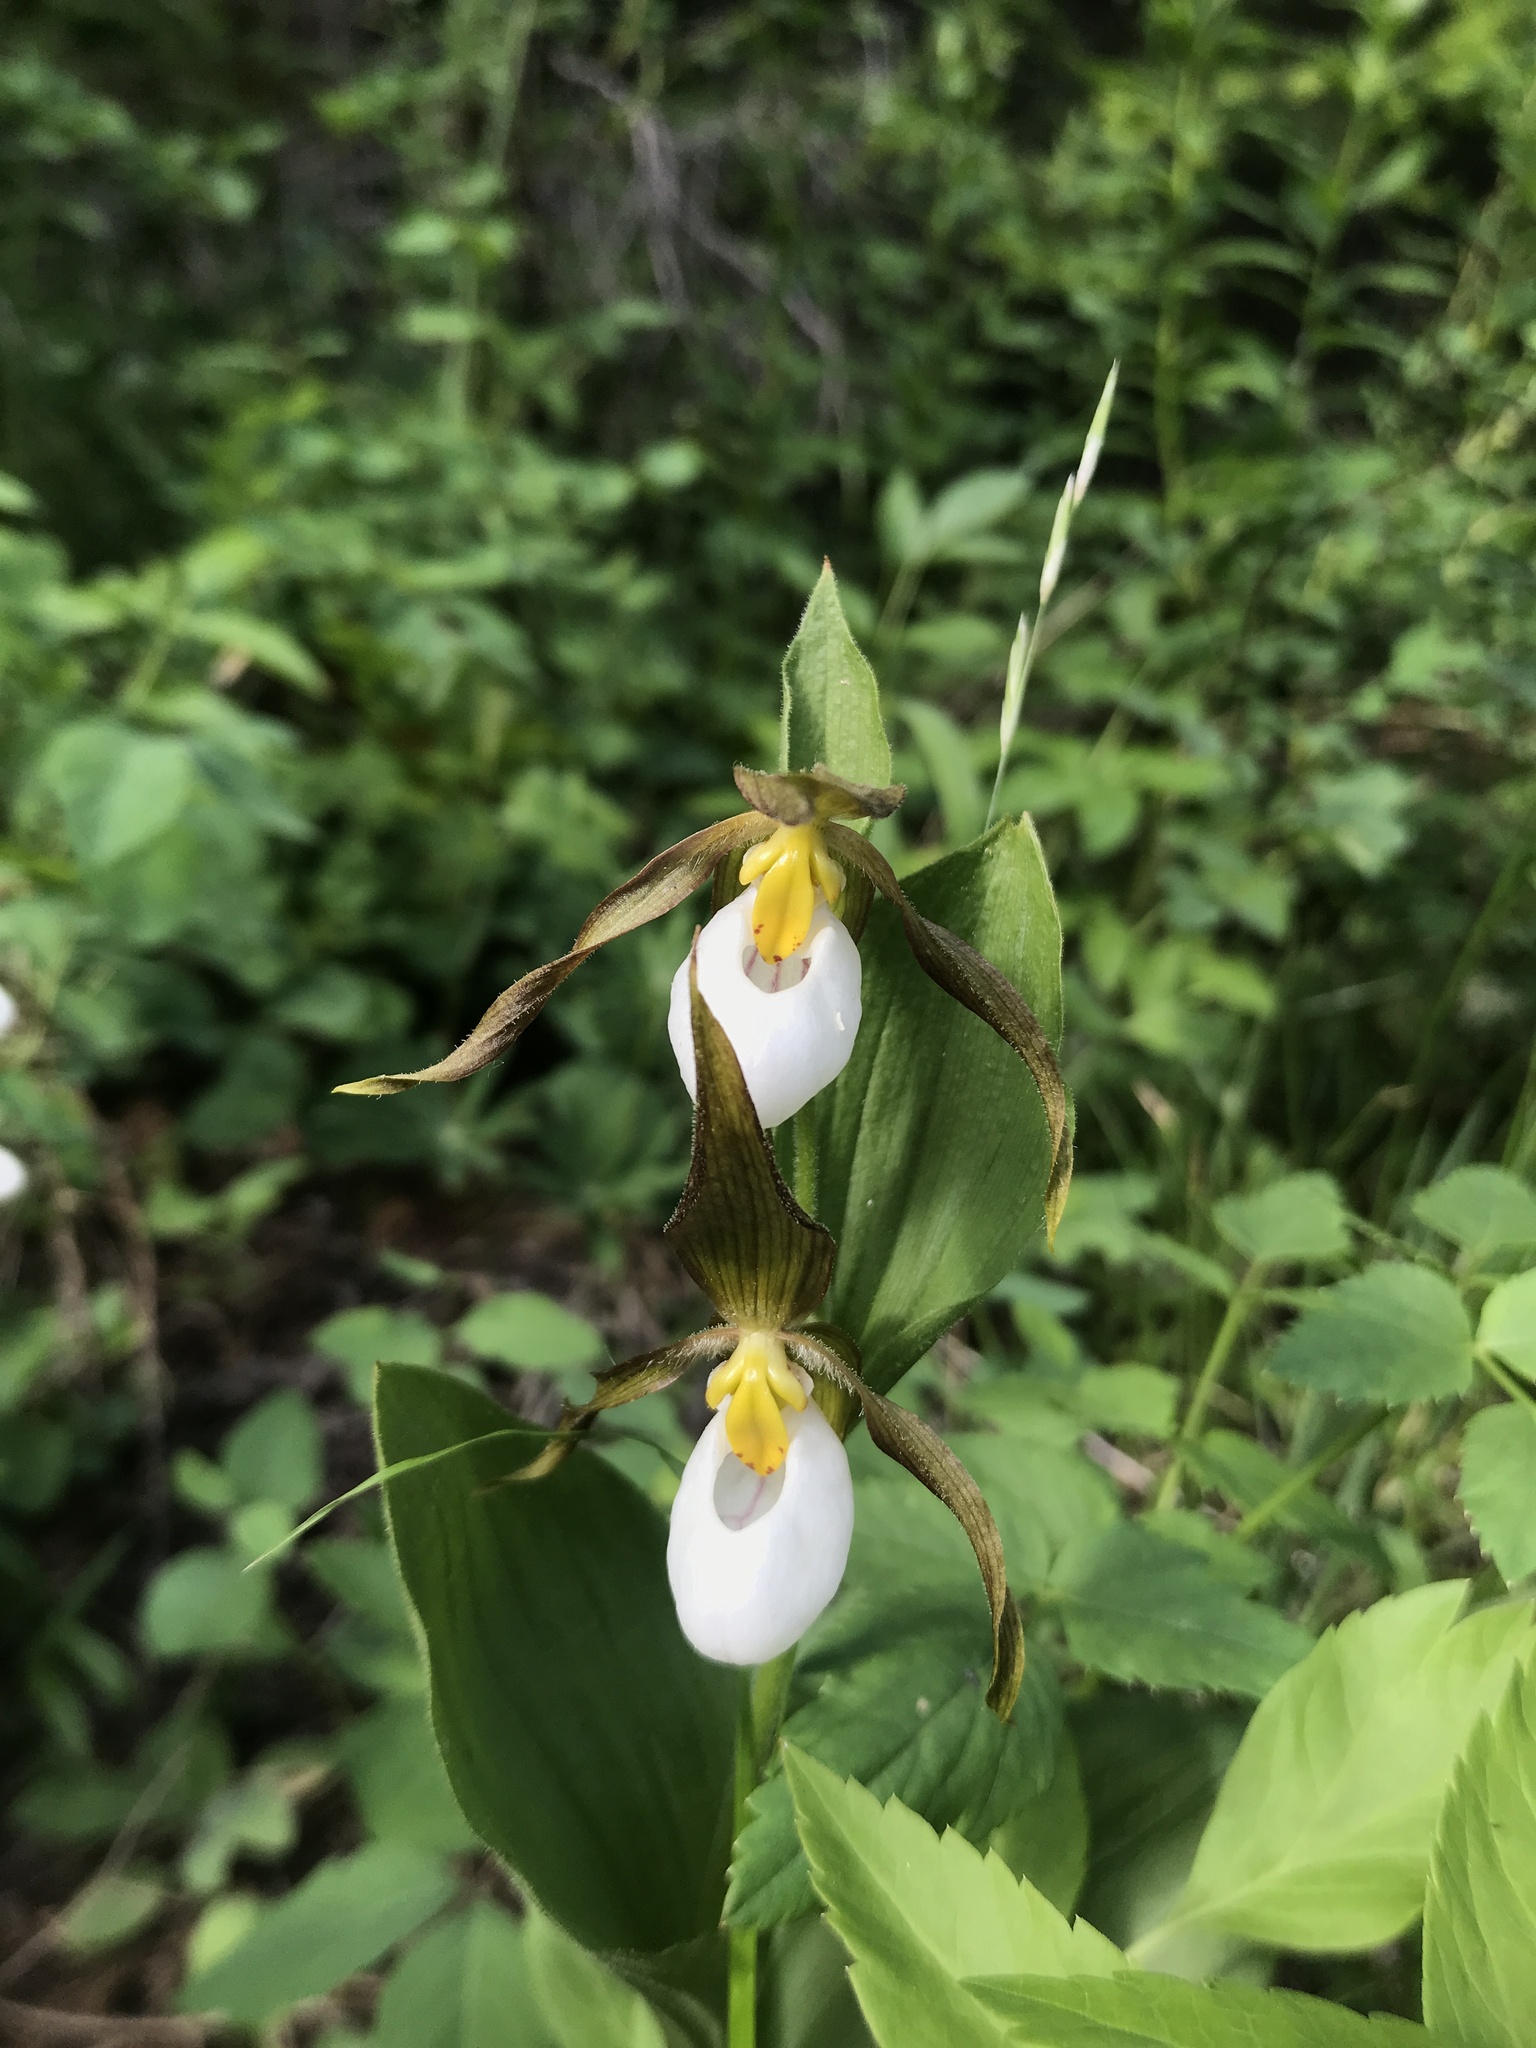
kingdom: Plantae
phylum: Tracheophyta
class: Liliopsida
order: Asparagales
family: Orchidaceae
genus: Cypripedium
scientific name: Cypripedium montanum
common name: Mountain lady's-slipper
